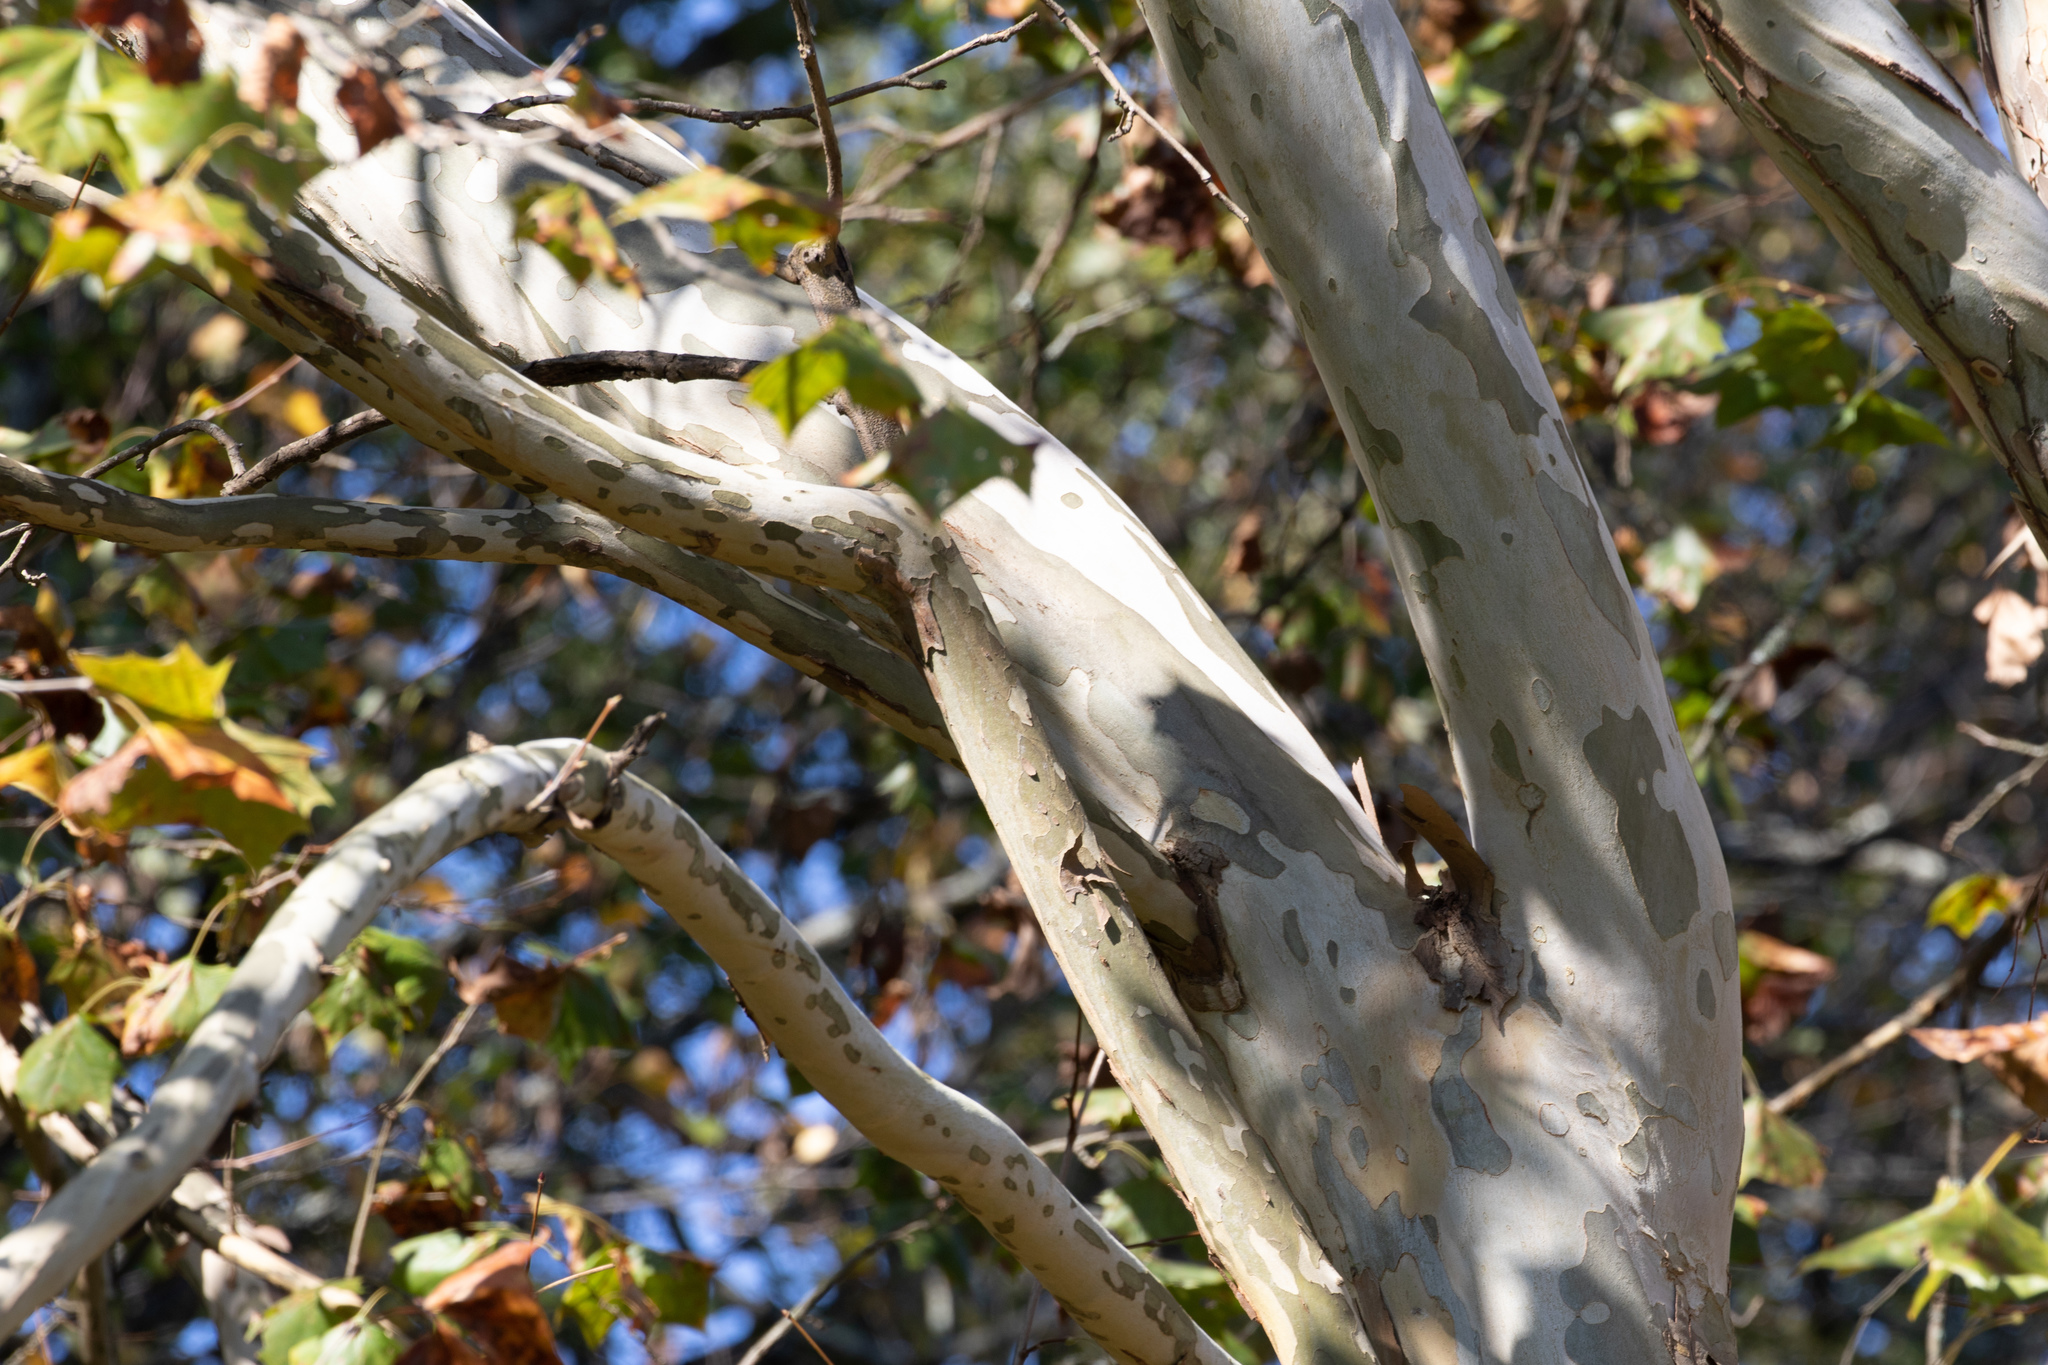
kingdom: Plantae
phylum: Tracheophyta
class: Magnoliopsida
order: Proteales
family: Platanaceae
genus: Platanus
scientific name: Platanus occidentalis
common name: American sycamore
